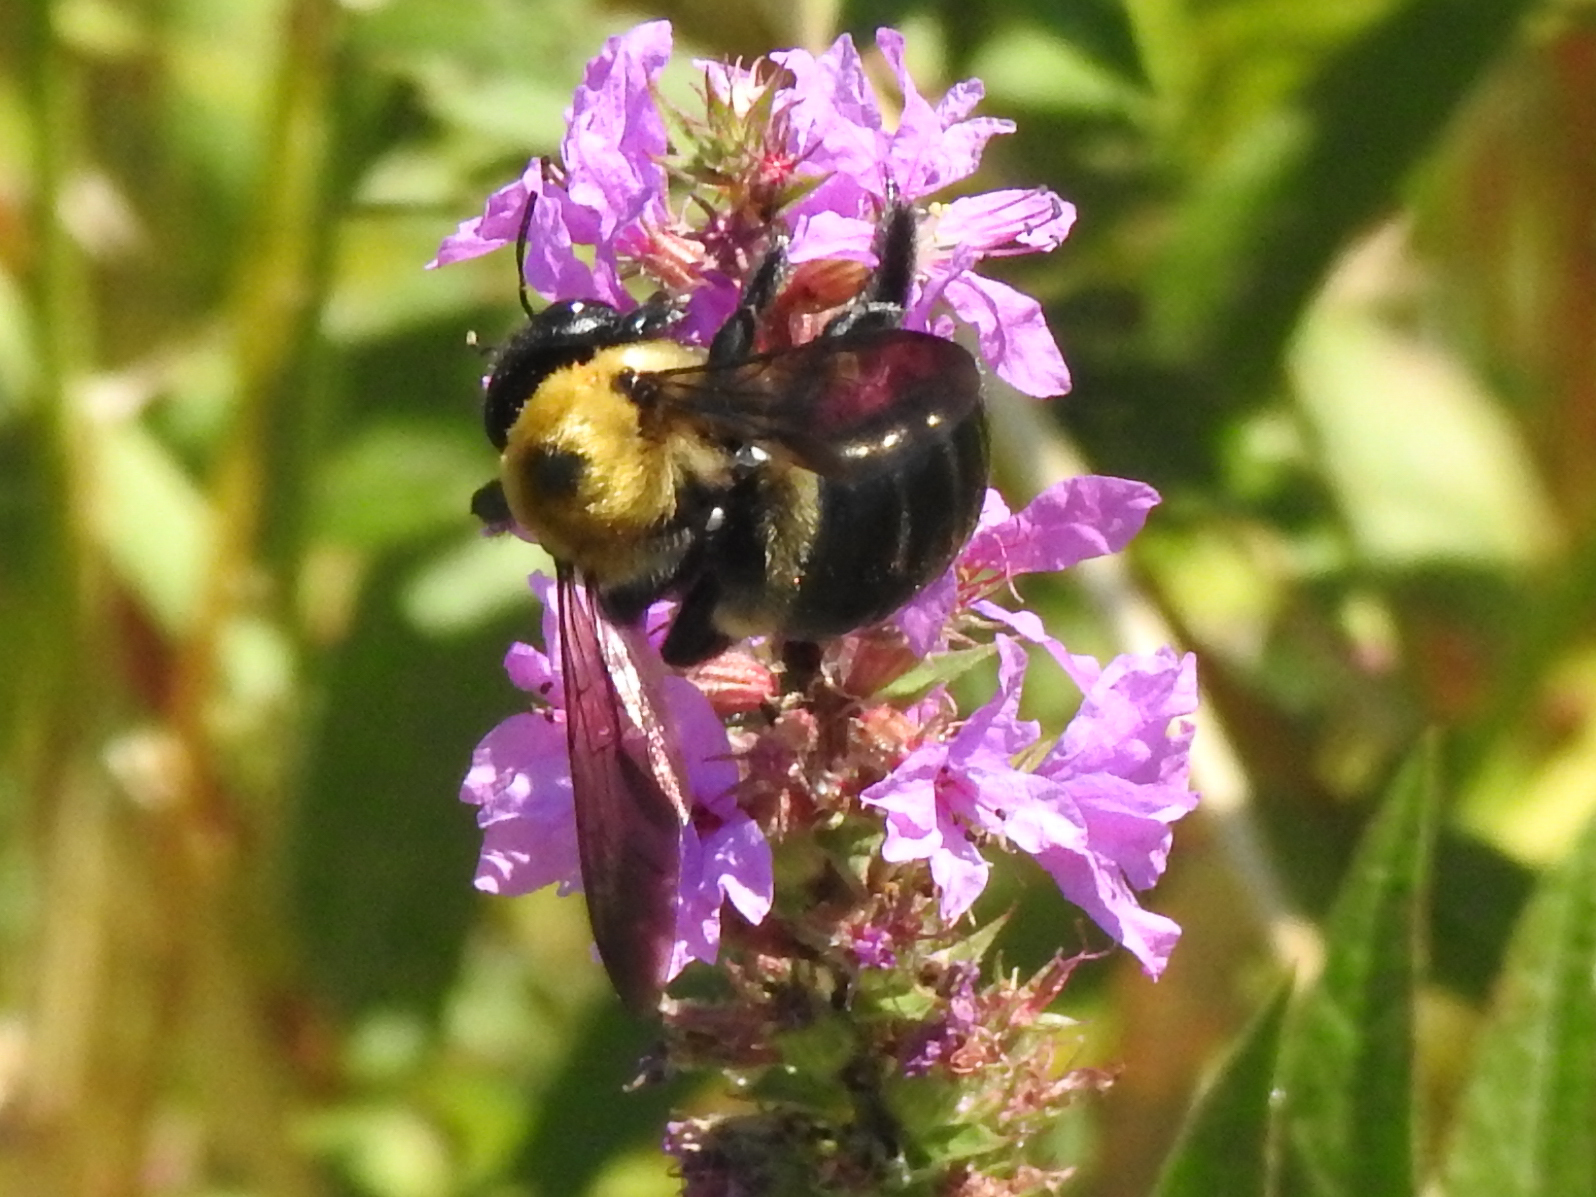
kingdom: Animalia
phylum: Arthropoda
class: Insecta
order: Hymenoptera
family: Apidae
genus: Xylocopa
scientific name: Xylocopa virginica
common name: Carpenter bee
